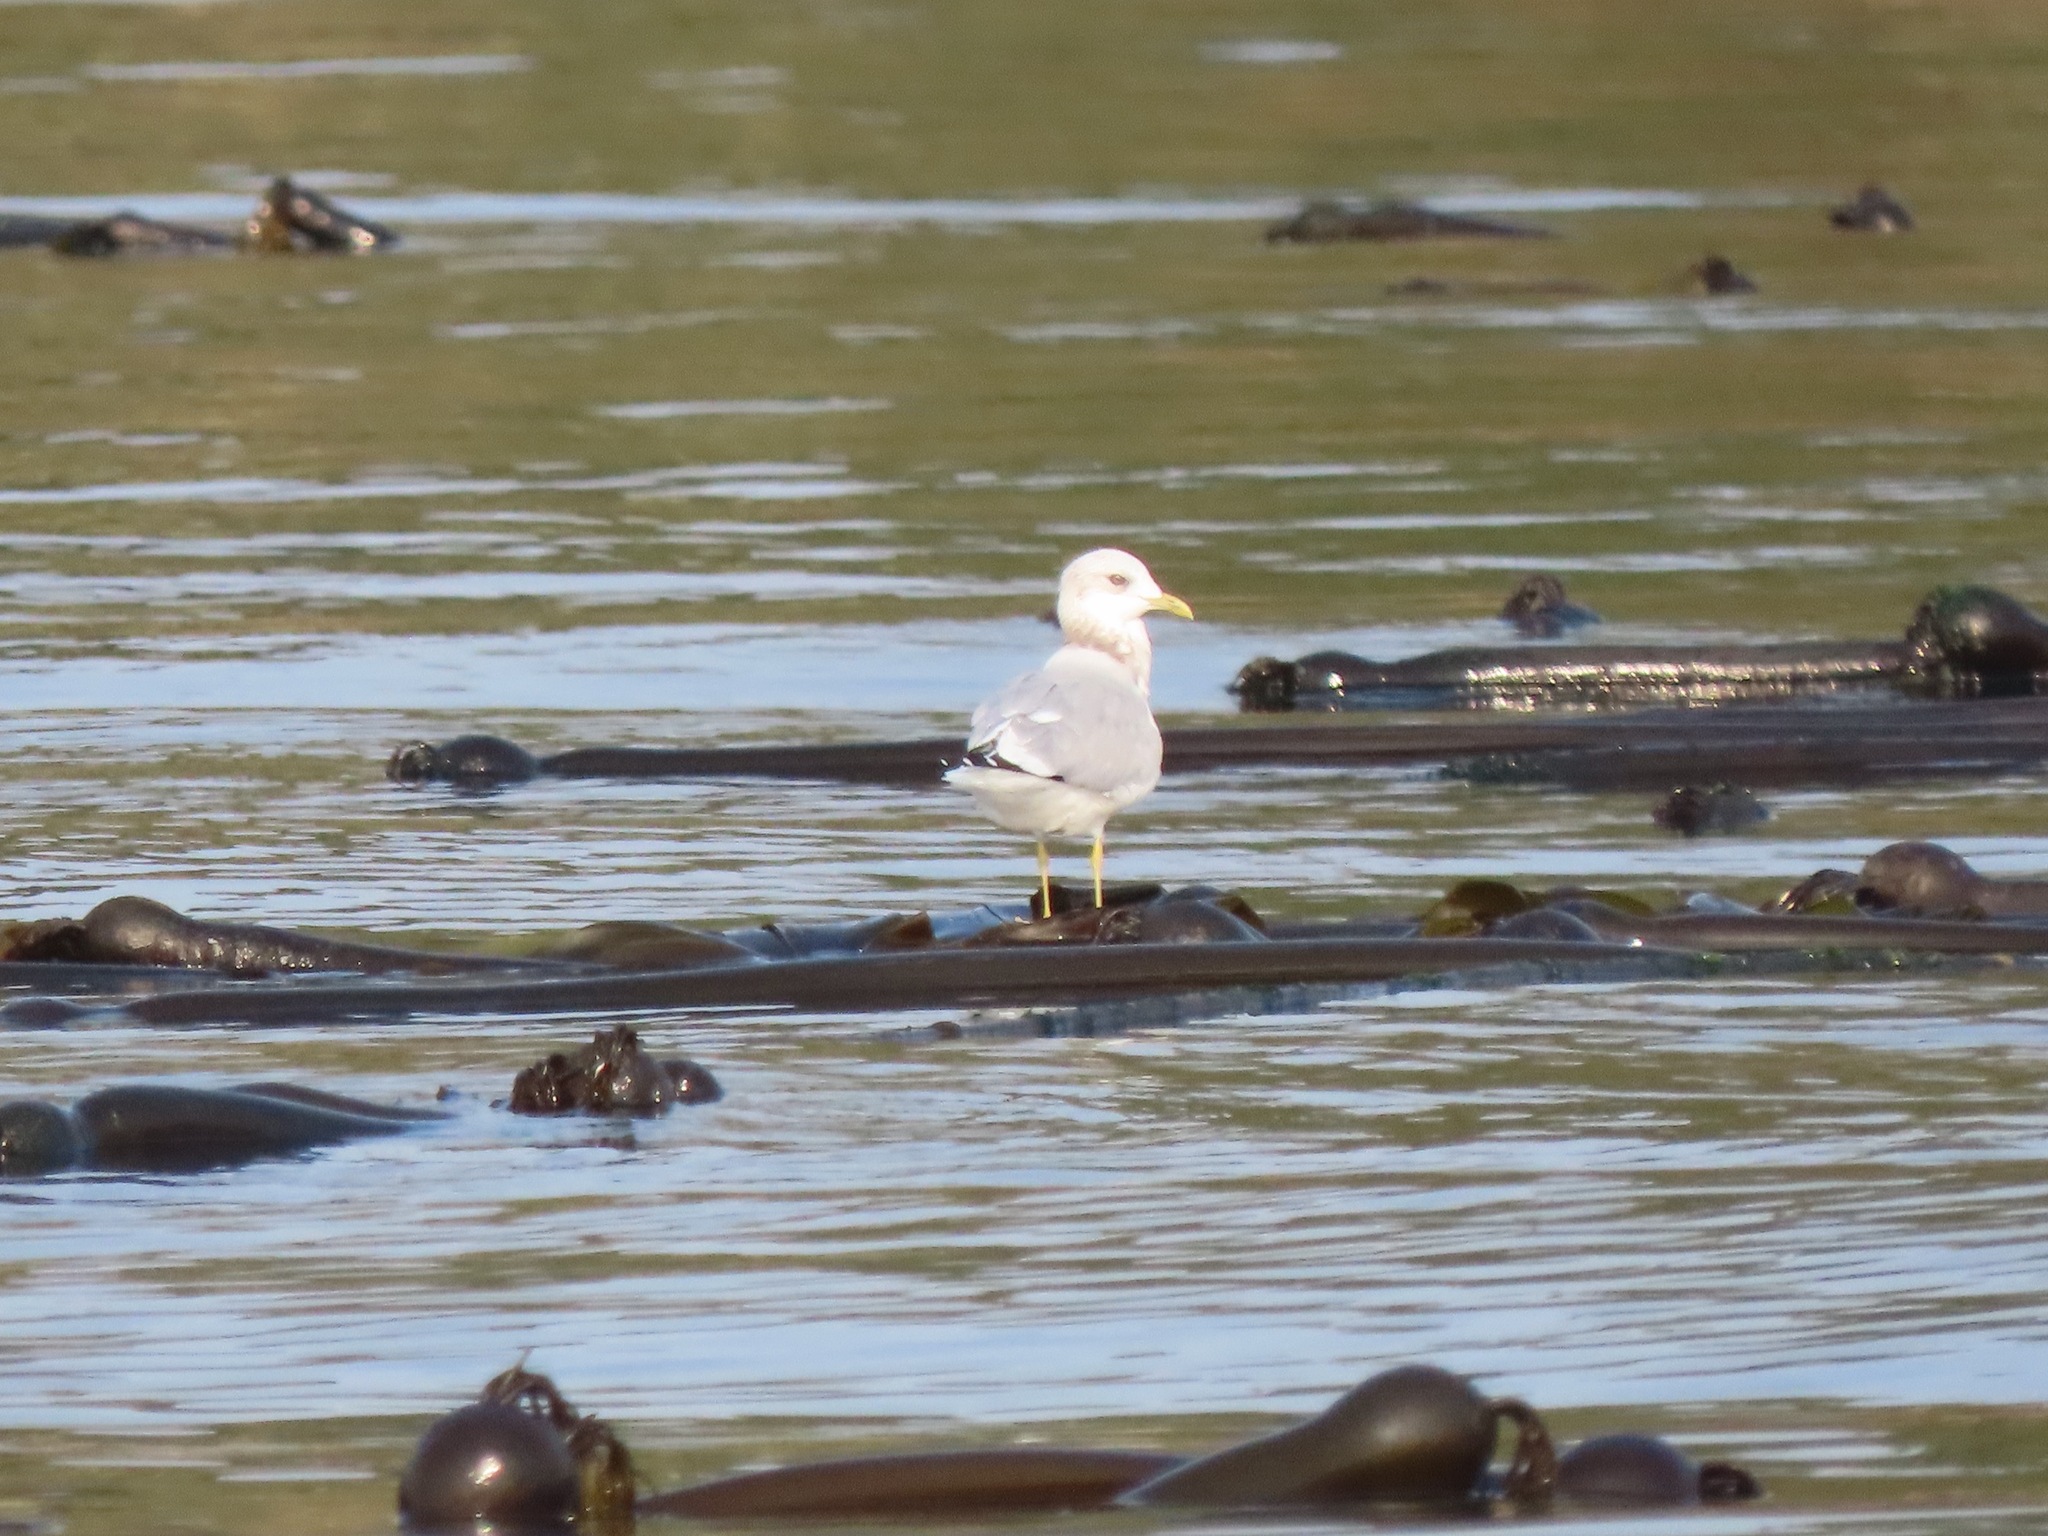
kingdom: Animalia
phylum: Chordata
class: Aves
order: Charadriiformes
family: Laridae
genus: Larus
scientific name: Larus brachyrhynchus
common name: Short-billed gull
